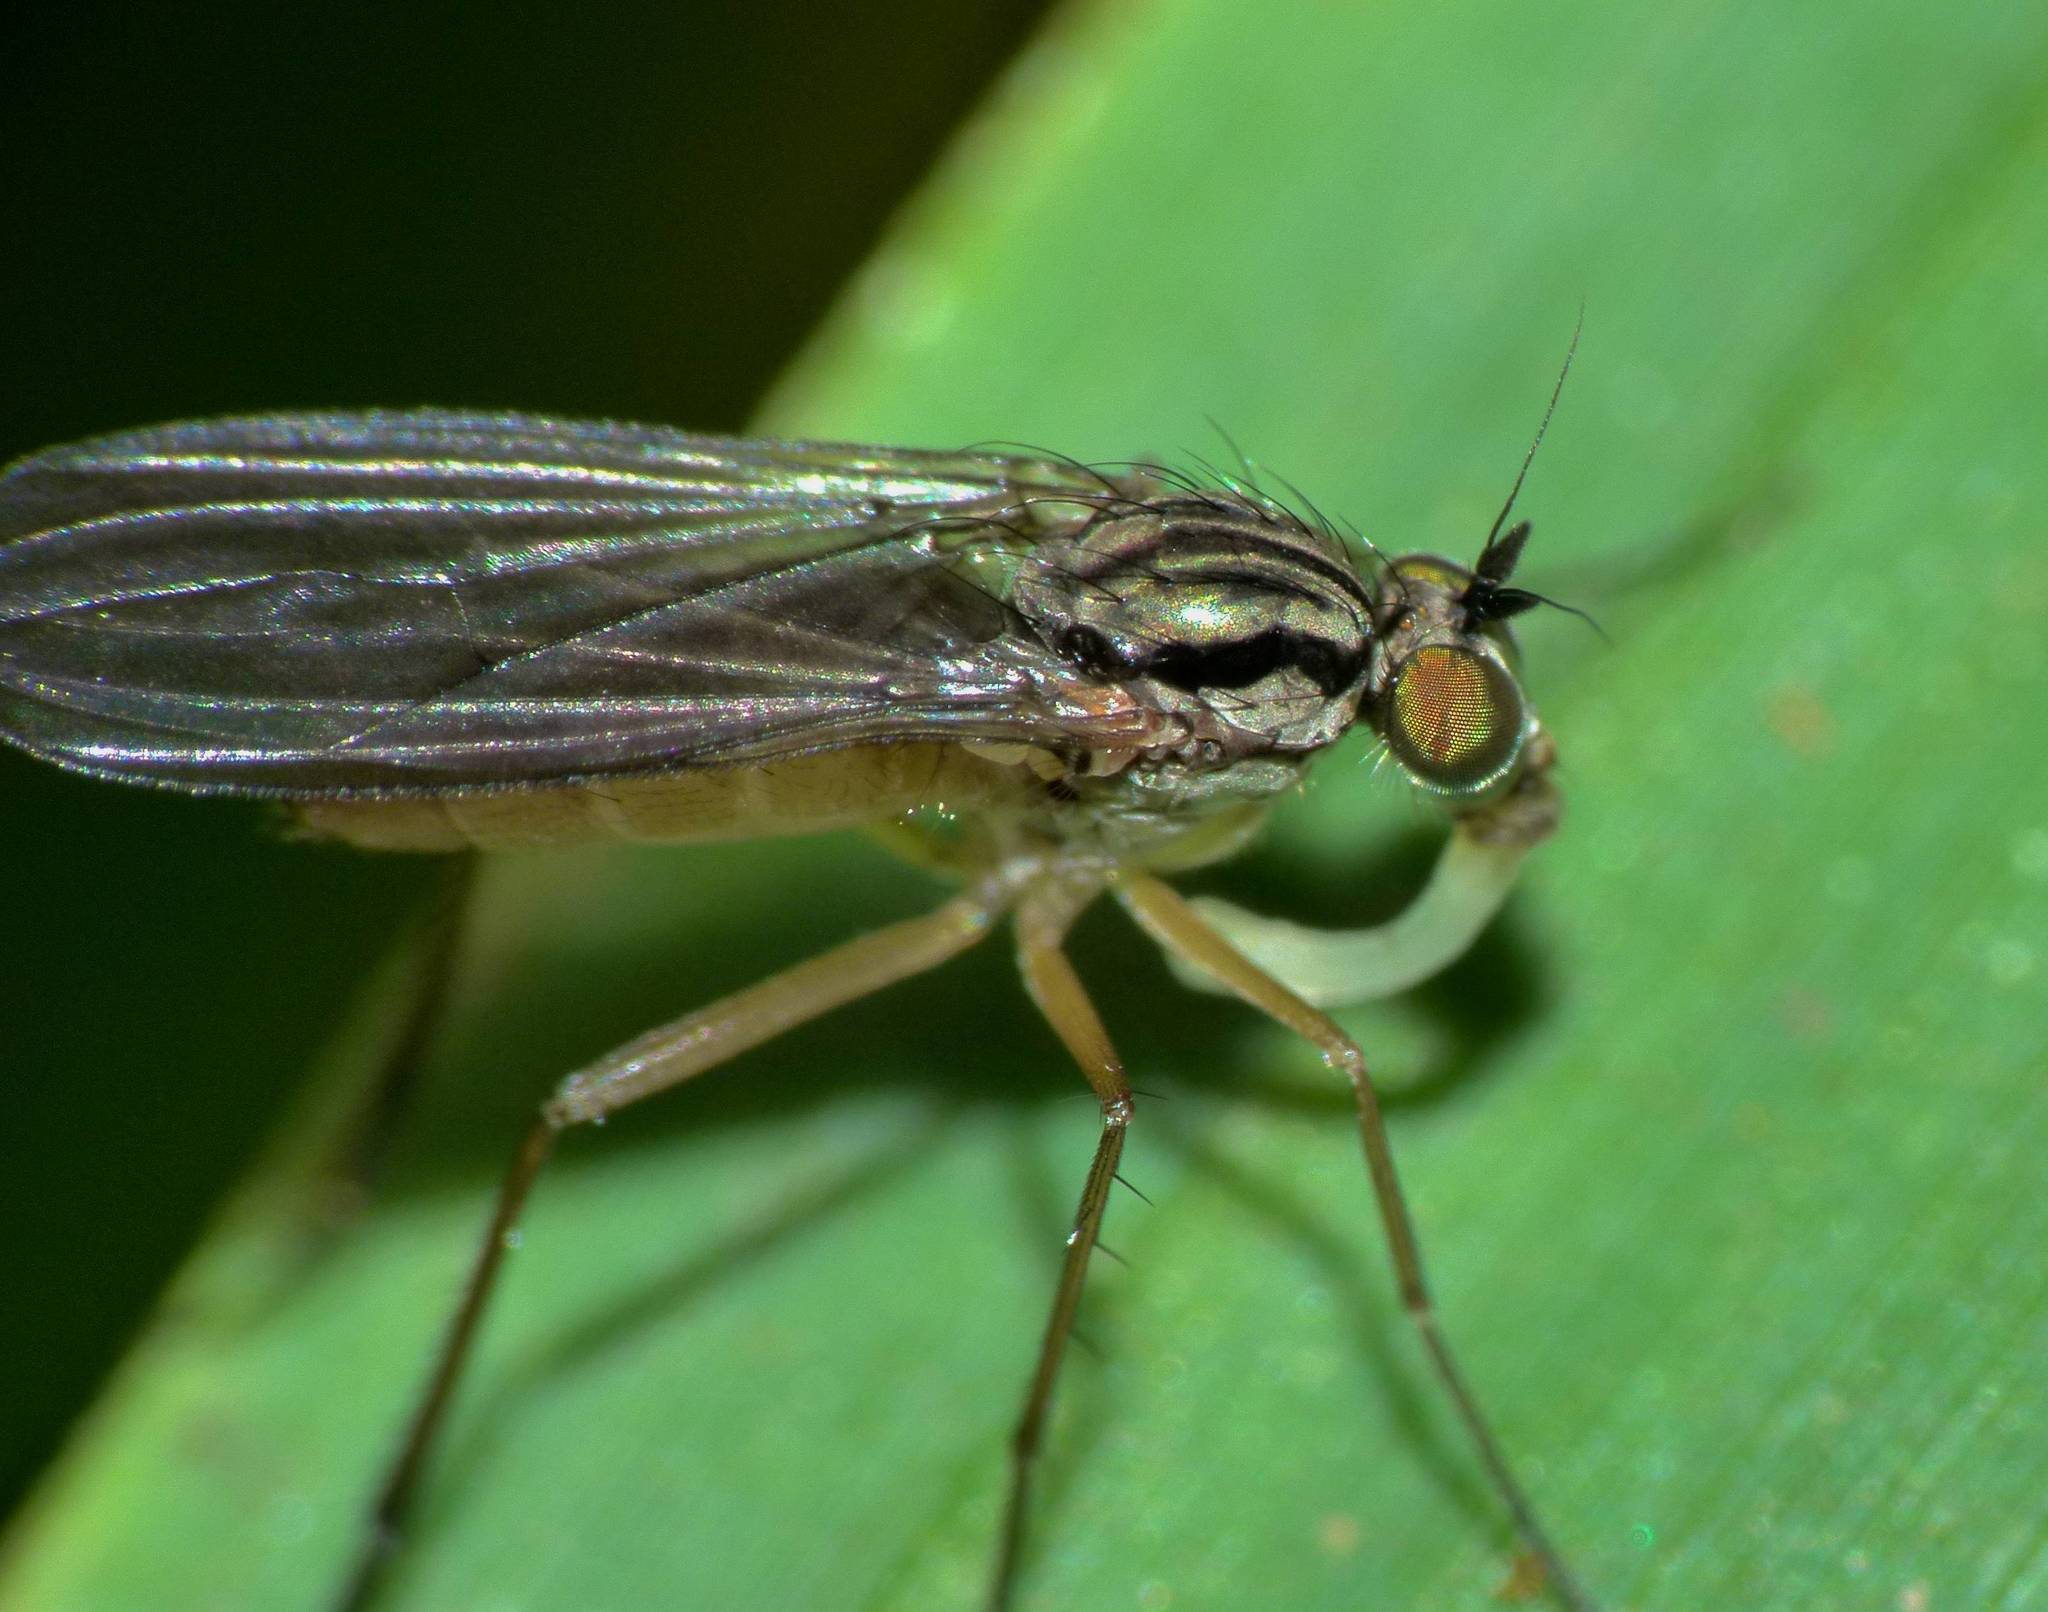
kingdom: Animalia
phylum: Arthropoda
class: Insecta
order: Diptera
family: Dolichopodidae
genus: Sympycnus
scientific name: Sympycnus longipilus
